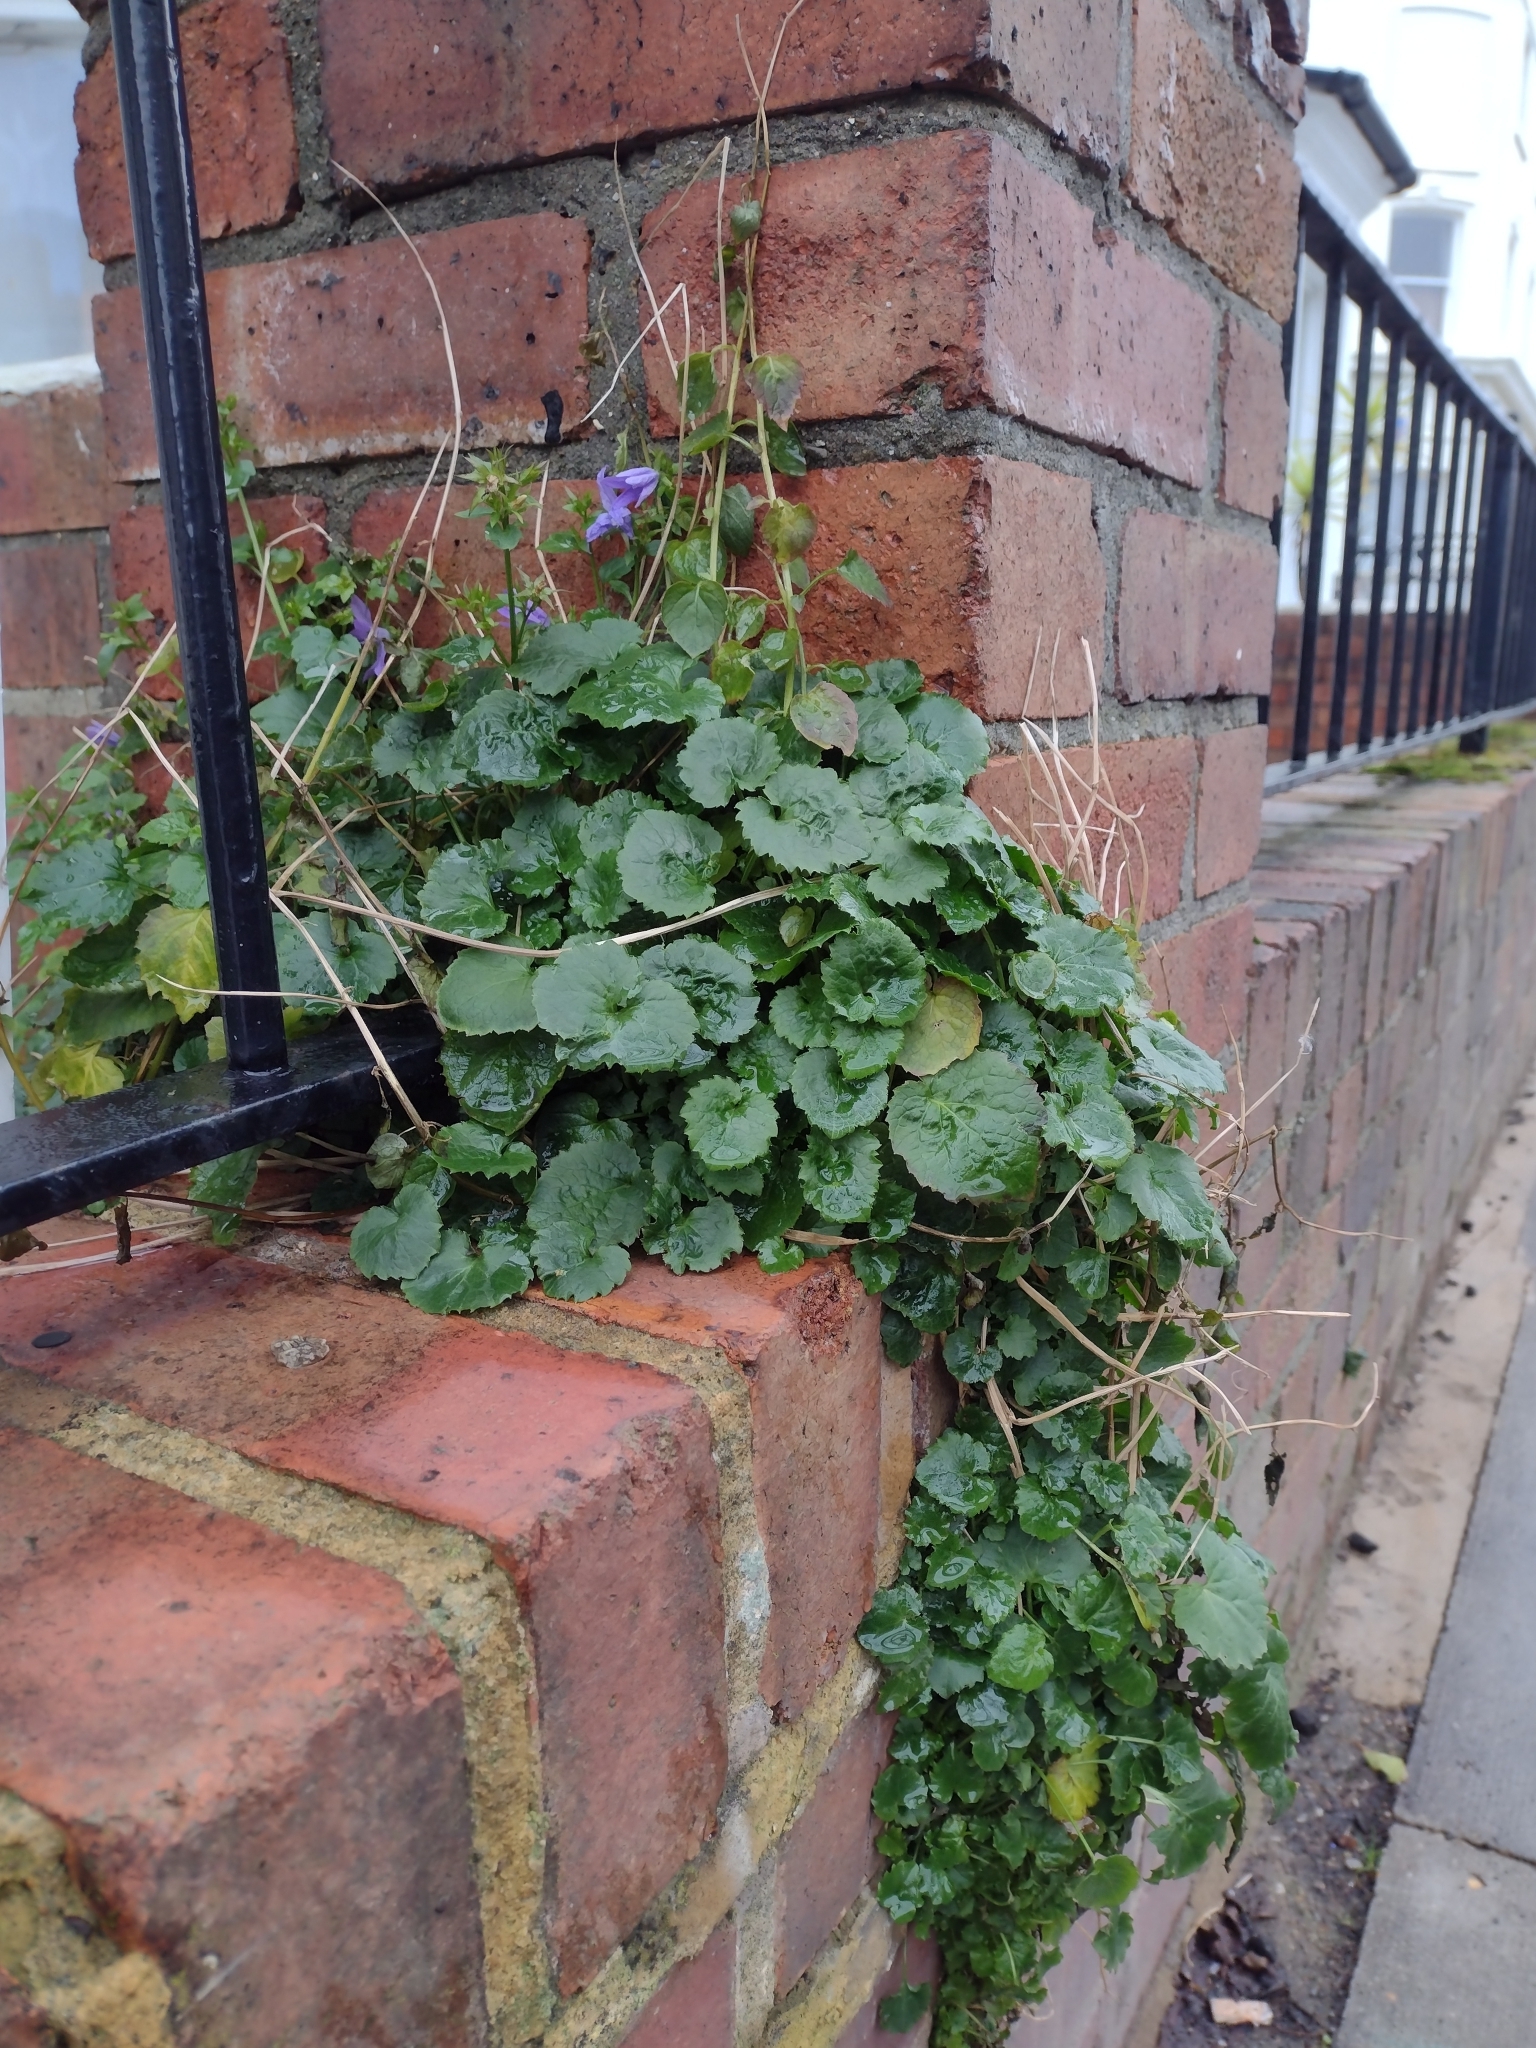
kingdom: Plantae
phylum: Tracheophyta
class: Magnoliopsida
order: Asterales
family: Campanulaceae
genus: Campanula
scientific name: Campanula poscharskyana
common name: Trailing bellflower
